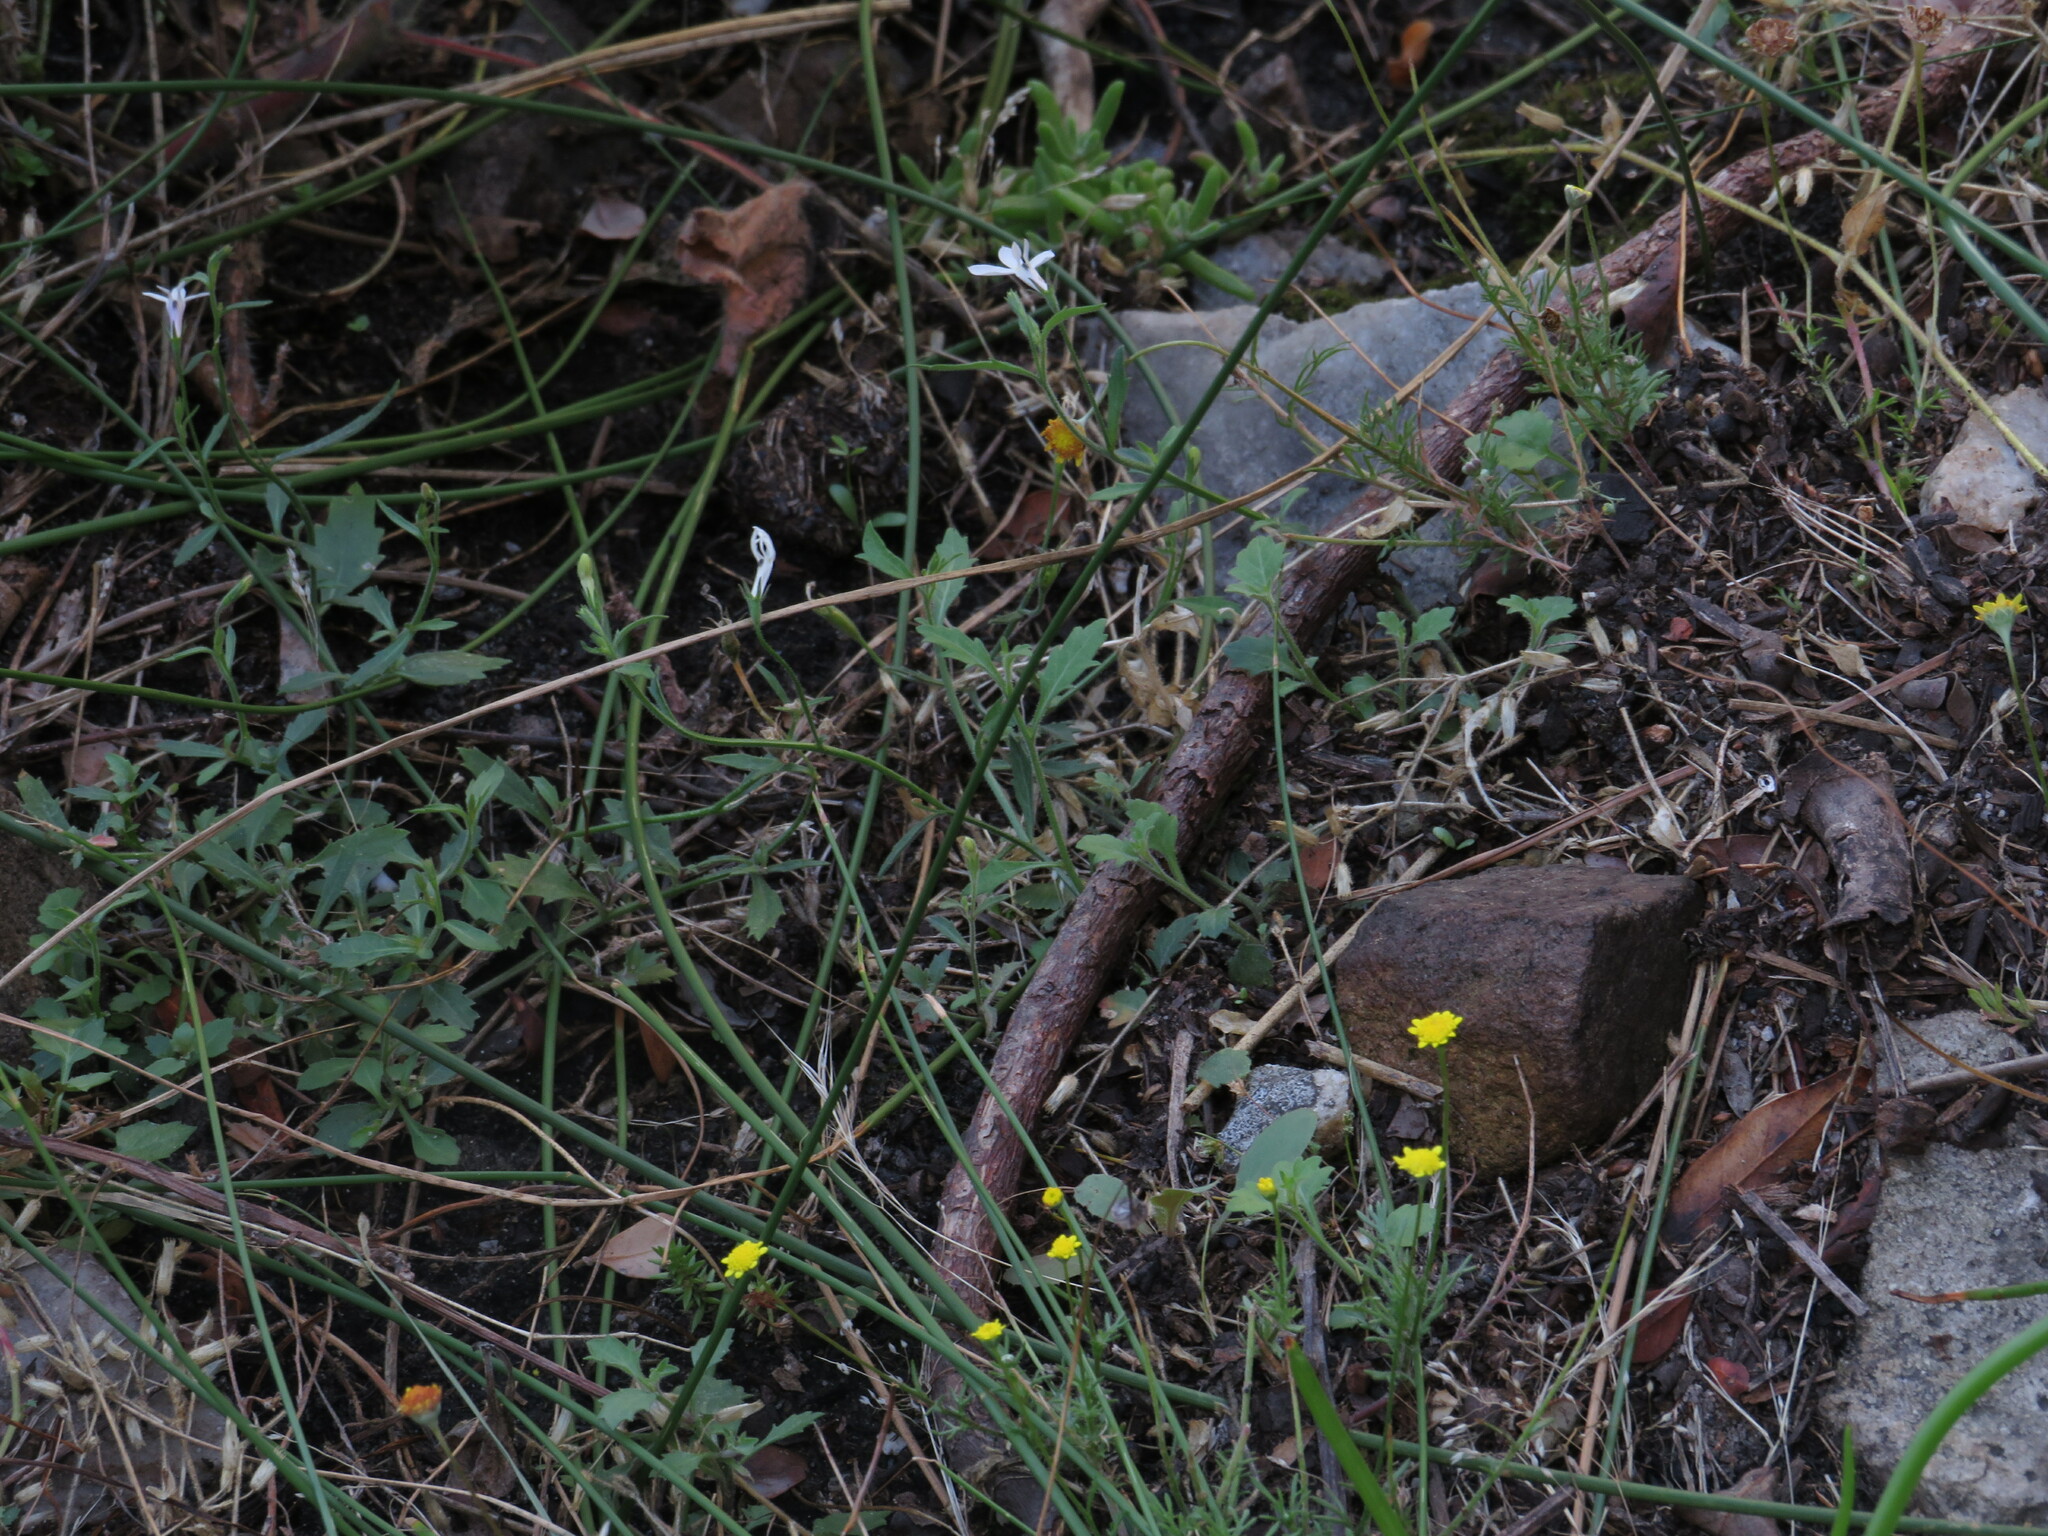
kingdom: Plantae
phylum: Tracheophyta
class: Magnoliopsida
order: Asterales
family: Campanulaceae
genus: Lobelia
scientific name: Lobelia pubescens
